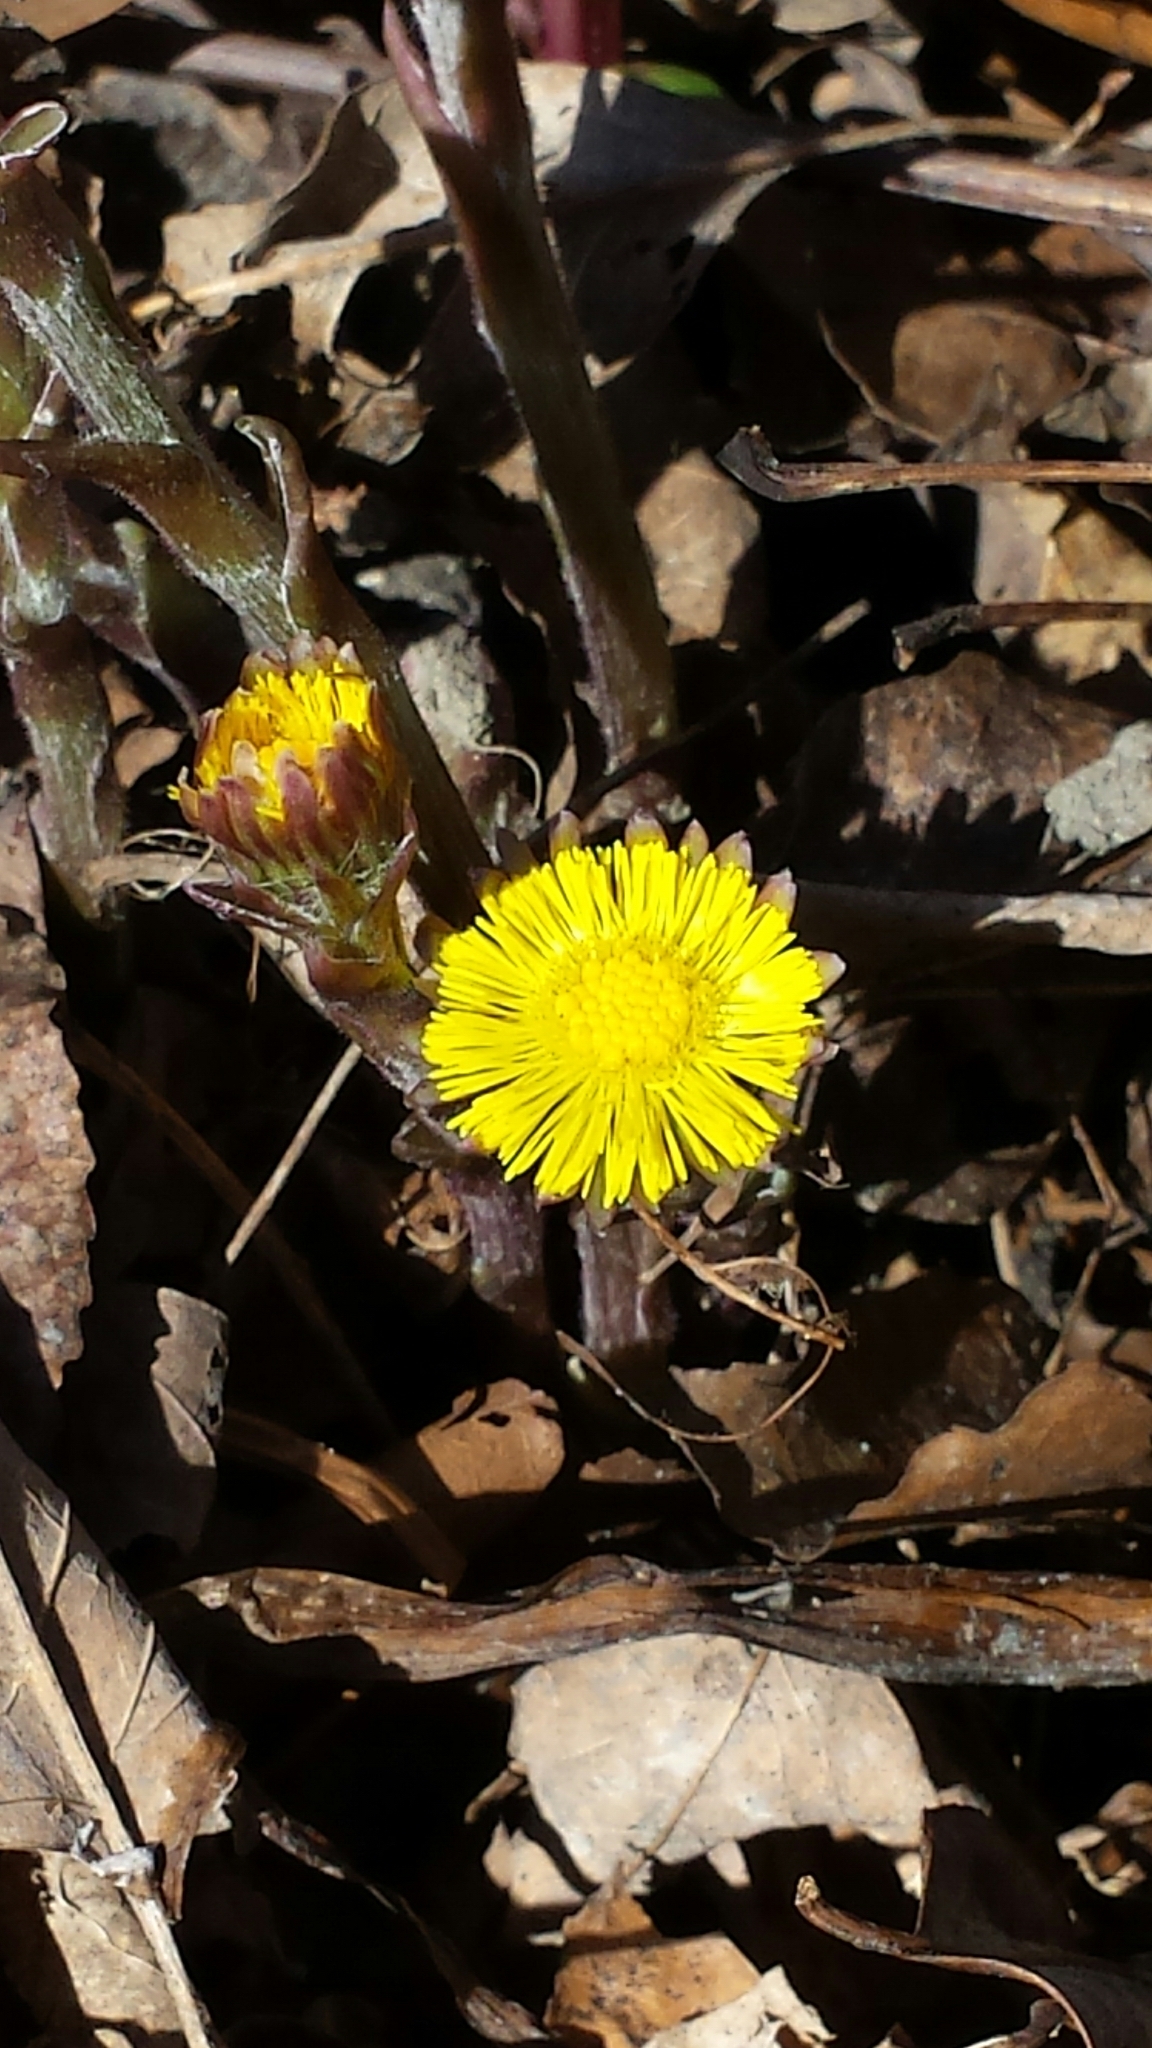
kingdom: Plantae
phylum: Tracheophyta
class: Magnoliopsida
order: Asterales
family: Asteraceae
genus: Tussilago
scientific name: Tussilago farfara
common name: Coltsfoot
